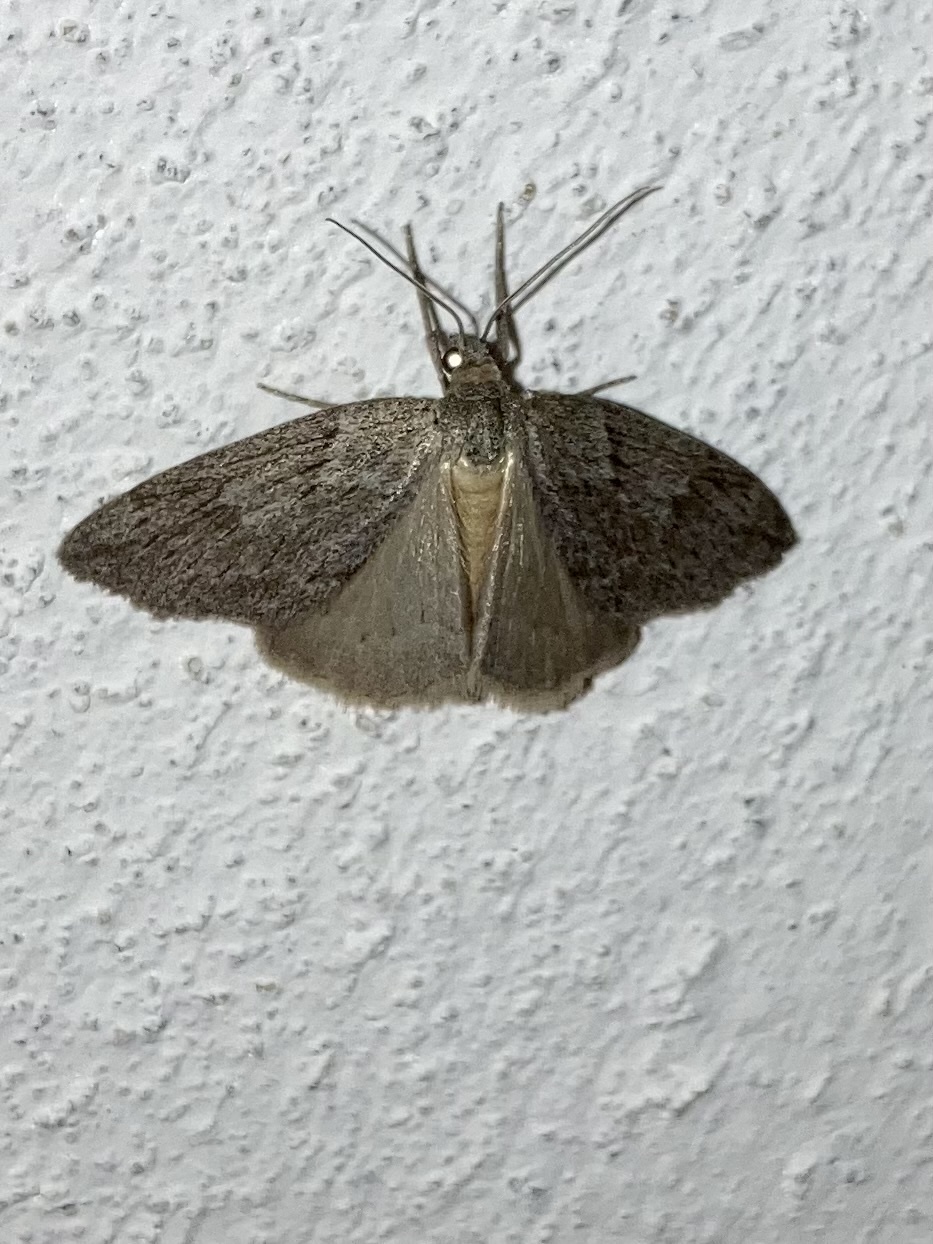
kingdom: Animalia
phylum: Arthropoda
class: Insecta
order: Lepidoptera
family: Geometridae
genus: Pachycnemia
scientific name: Pachycnemia hippocastanaria
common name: Horse chestnut
